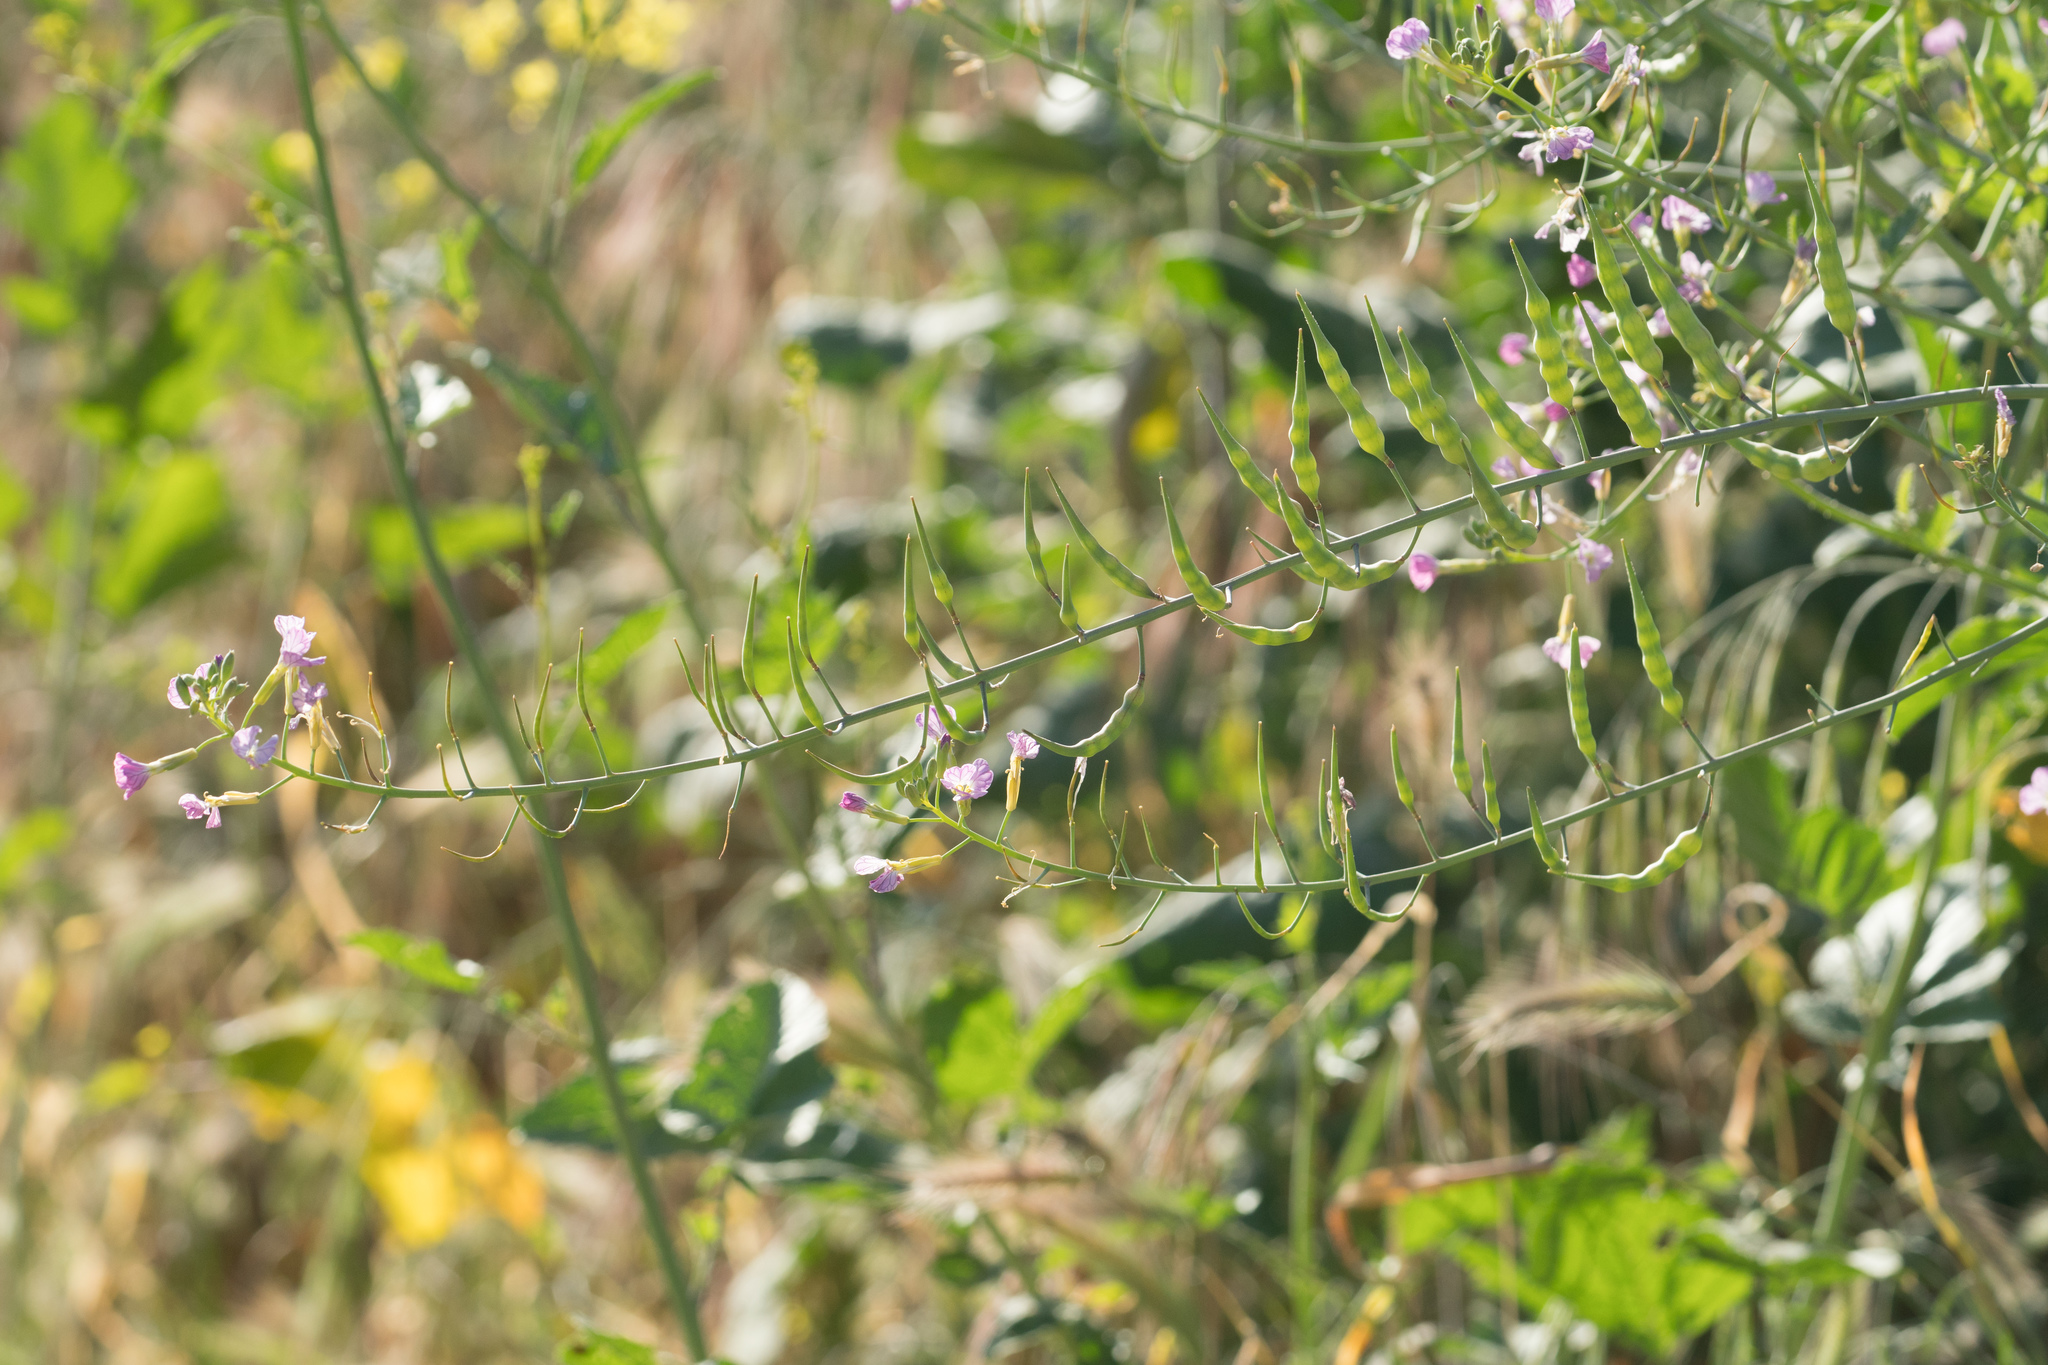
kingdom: Plantae
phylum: Tracheophyta
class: Magnoliopsida
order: Brassicales
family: Brassicaceae
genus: Raphanus
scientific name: Raphanus sativus
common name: Cultivated radish
